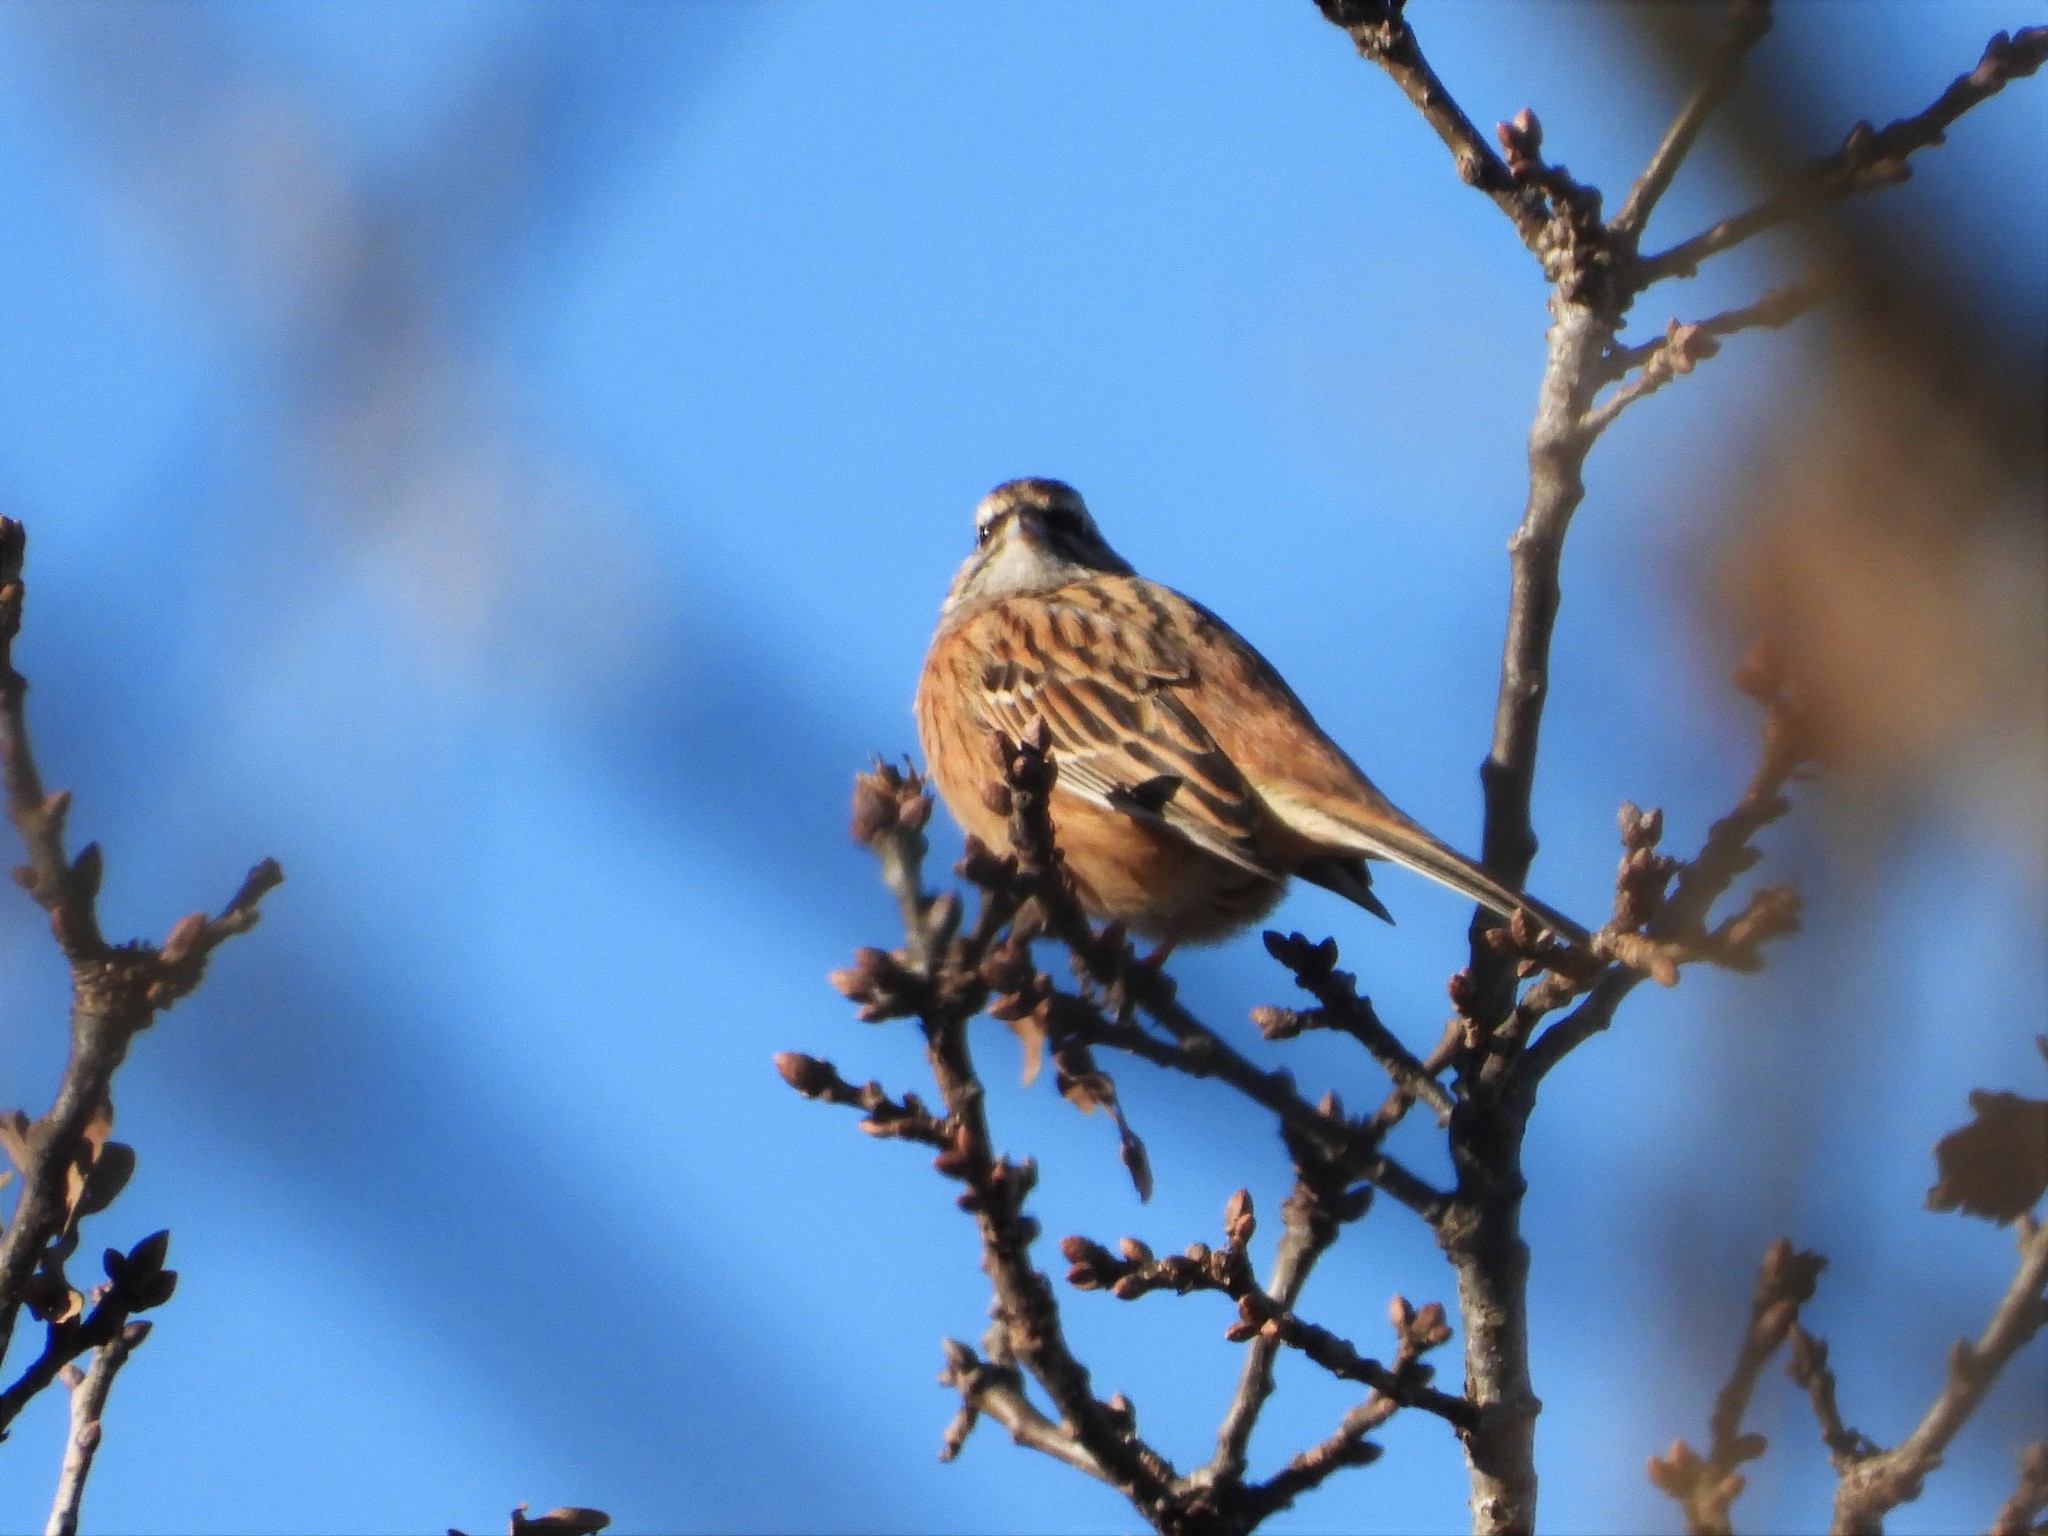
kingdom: Animalia
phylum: Chordata
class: Aves
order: Passeriformes
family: Emberizidae
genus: Emberiza
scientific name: Emberiza cia
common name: Rock bunting
